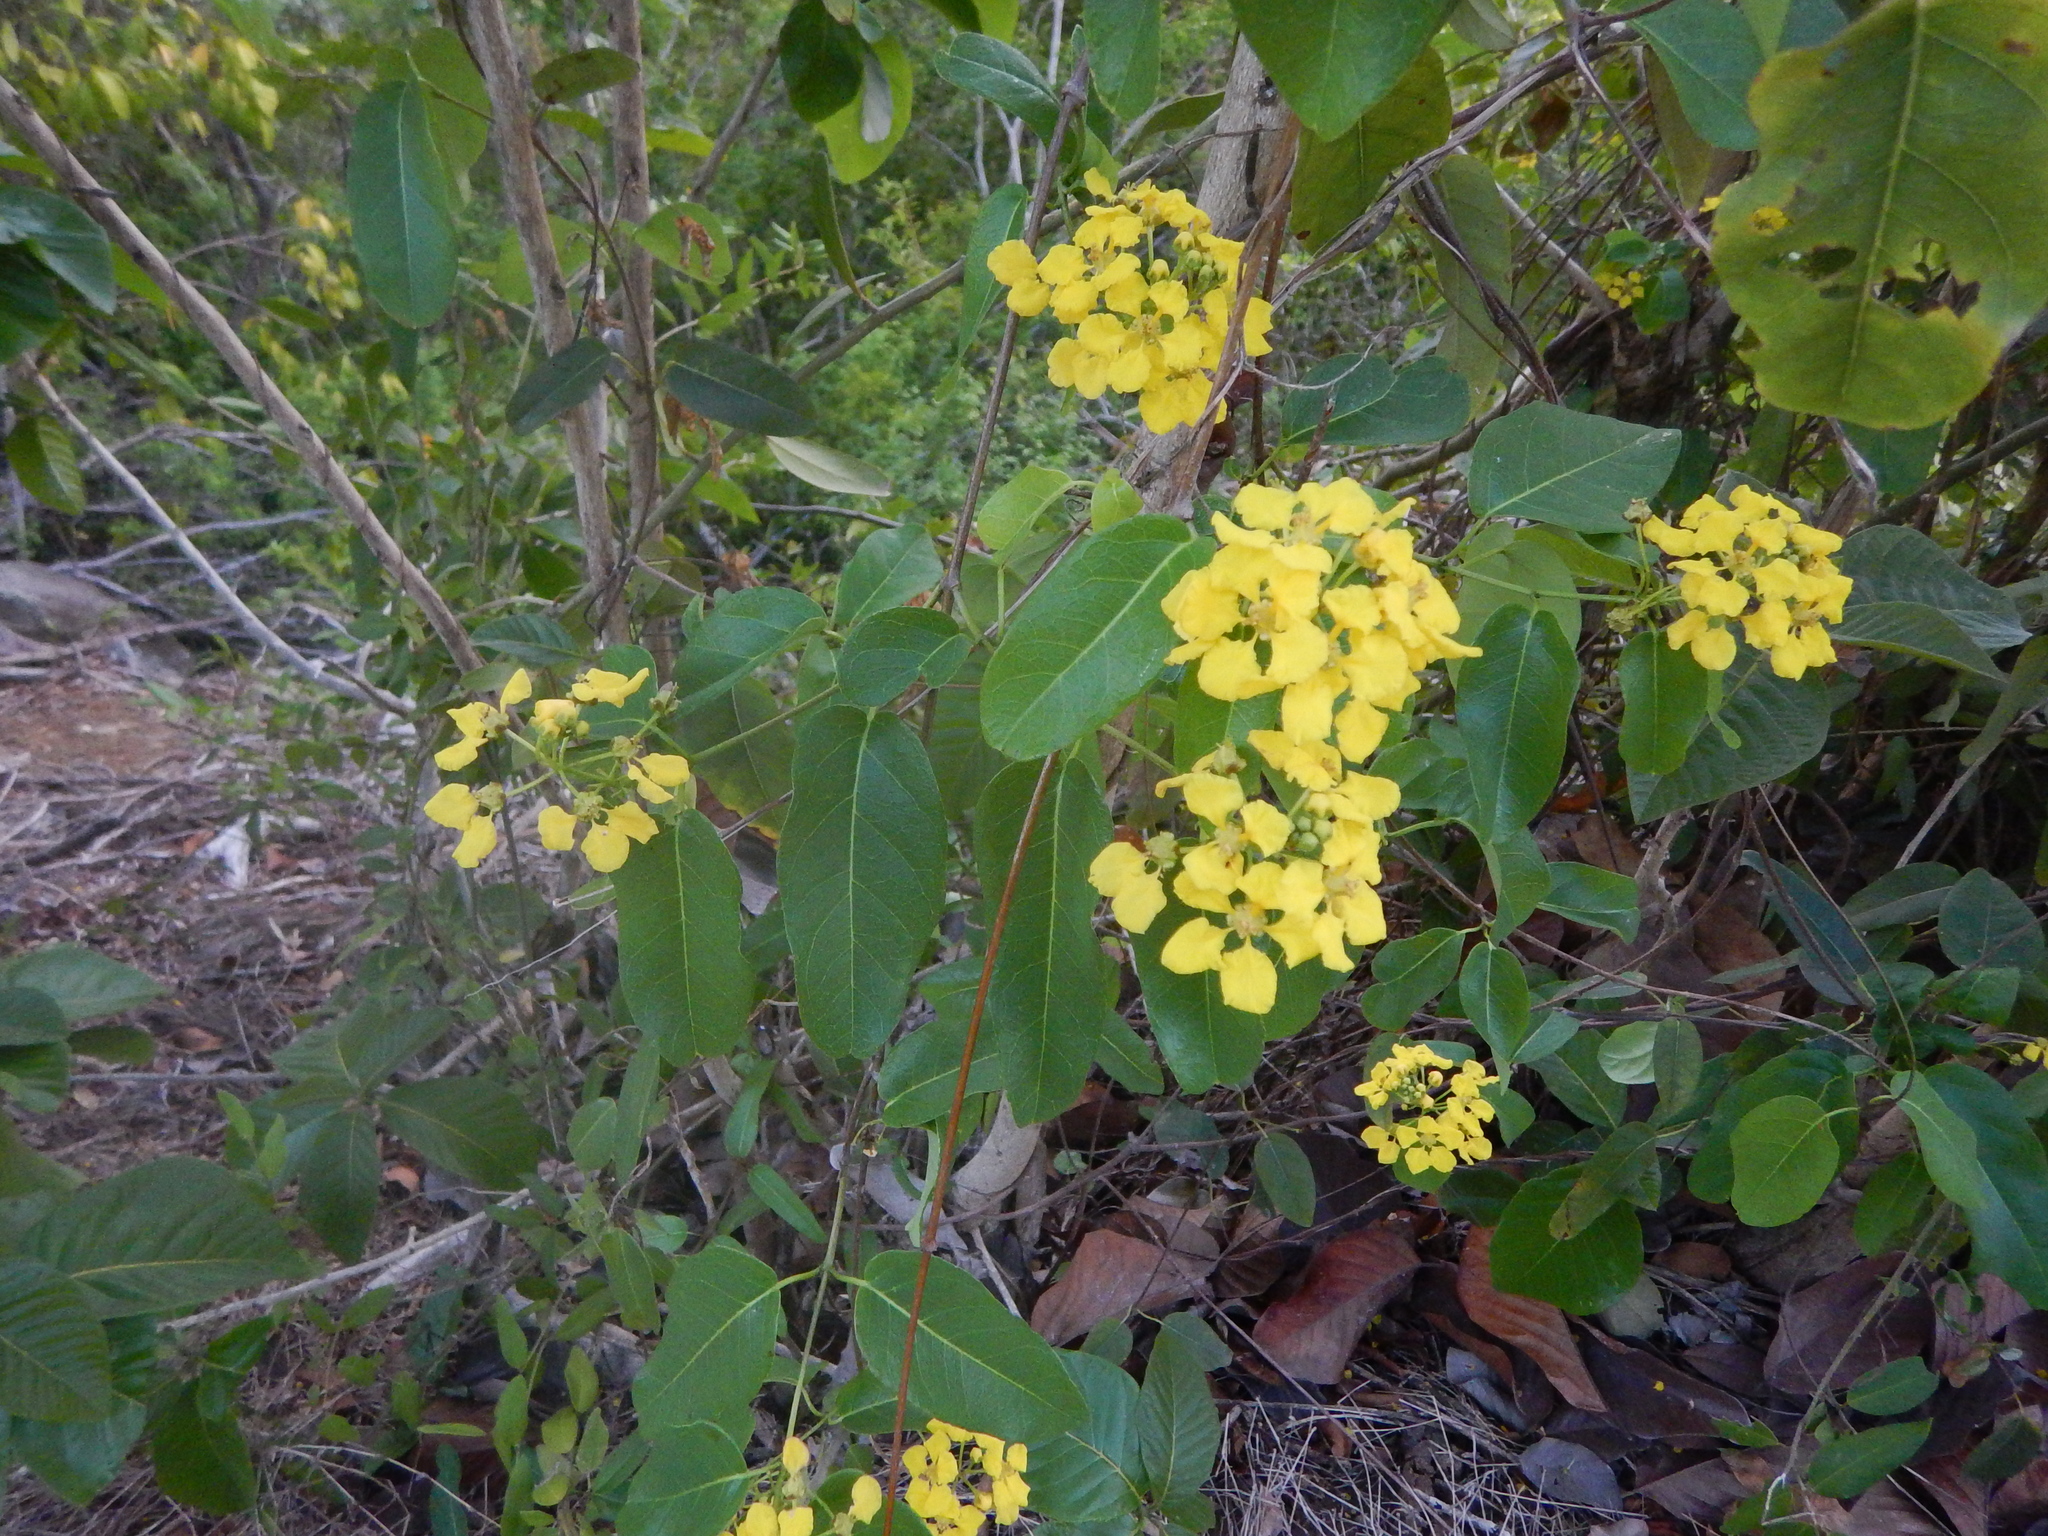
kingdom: Plantae
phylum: Tracheophyta
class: Magnoliopsida
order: Malpighiales
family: Malpighiaceae
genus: Stigmaphyllon
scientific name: Stigmaphyllon emarginatum
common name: Monarch amazonvine
